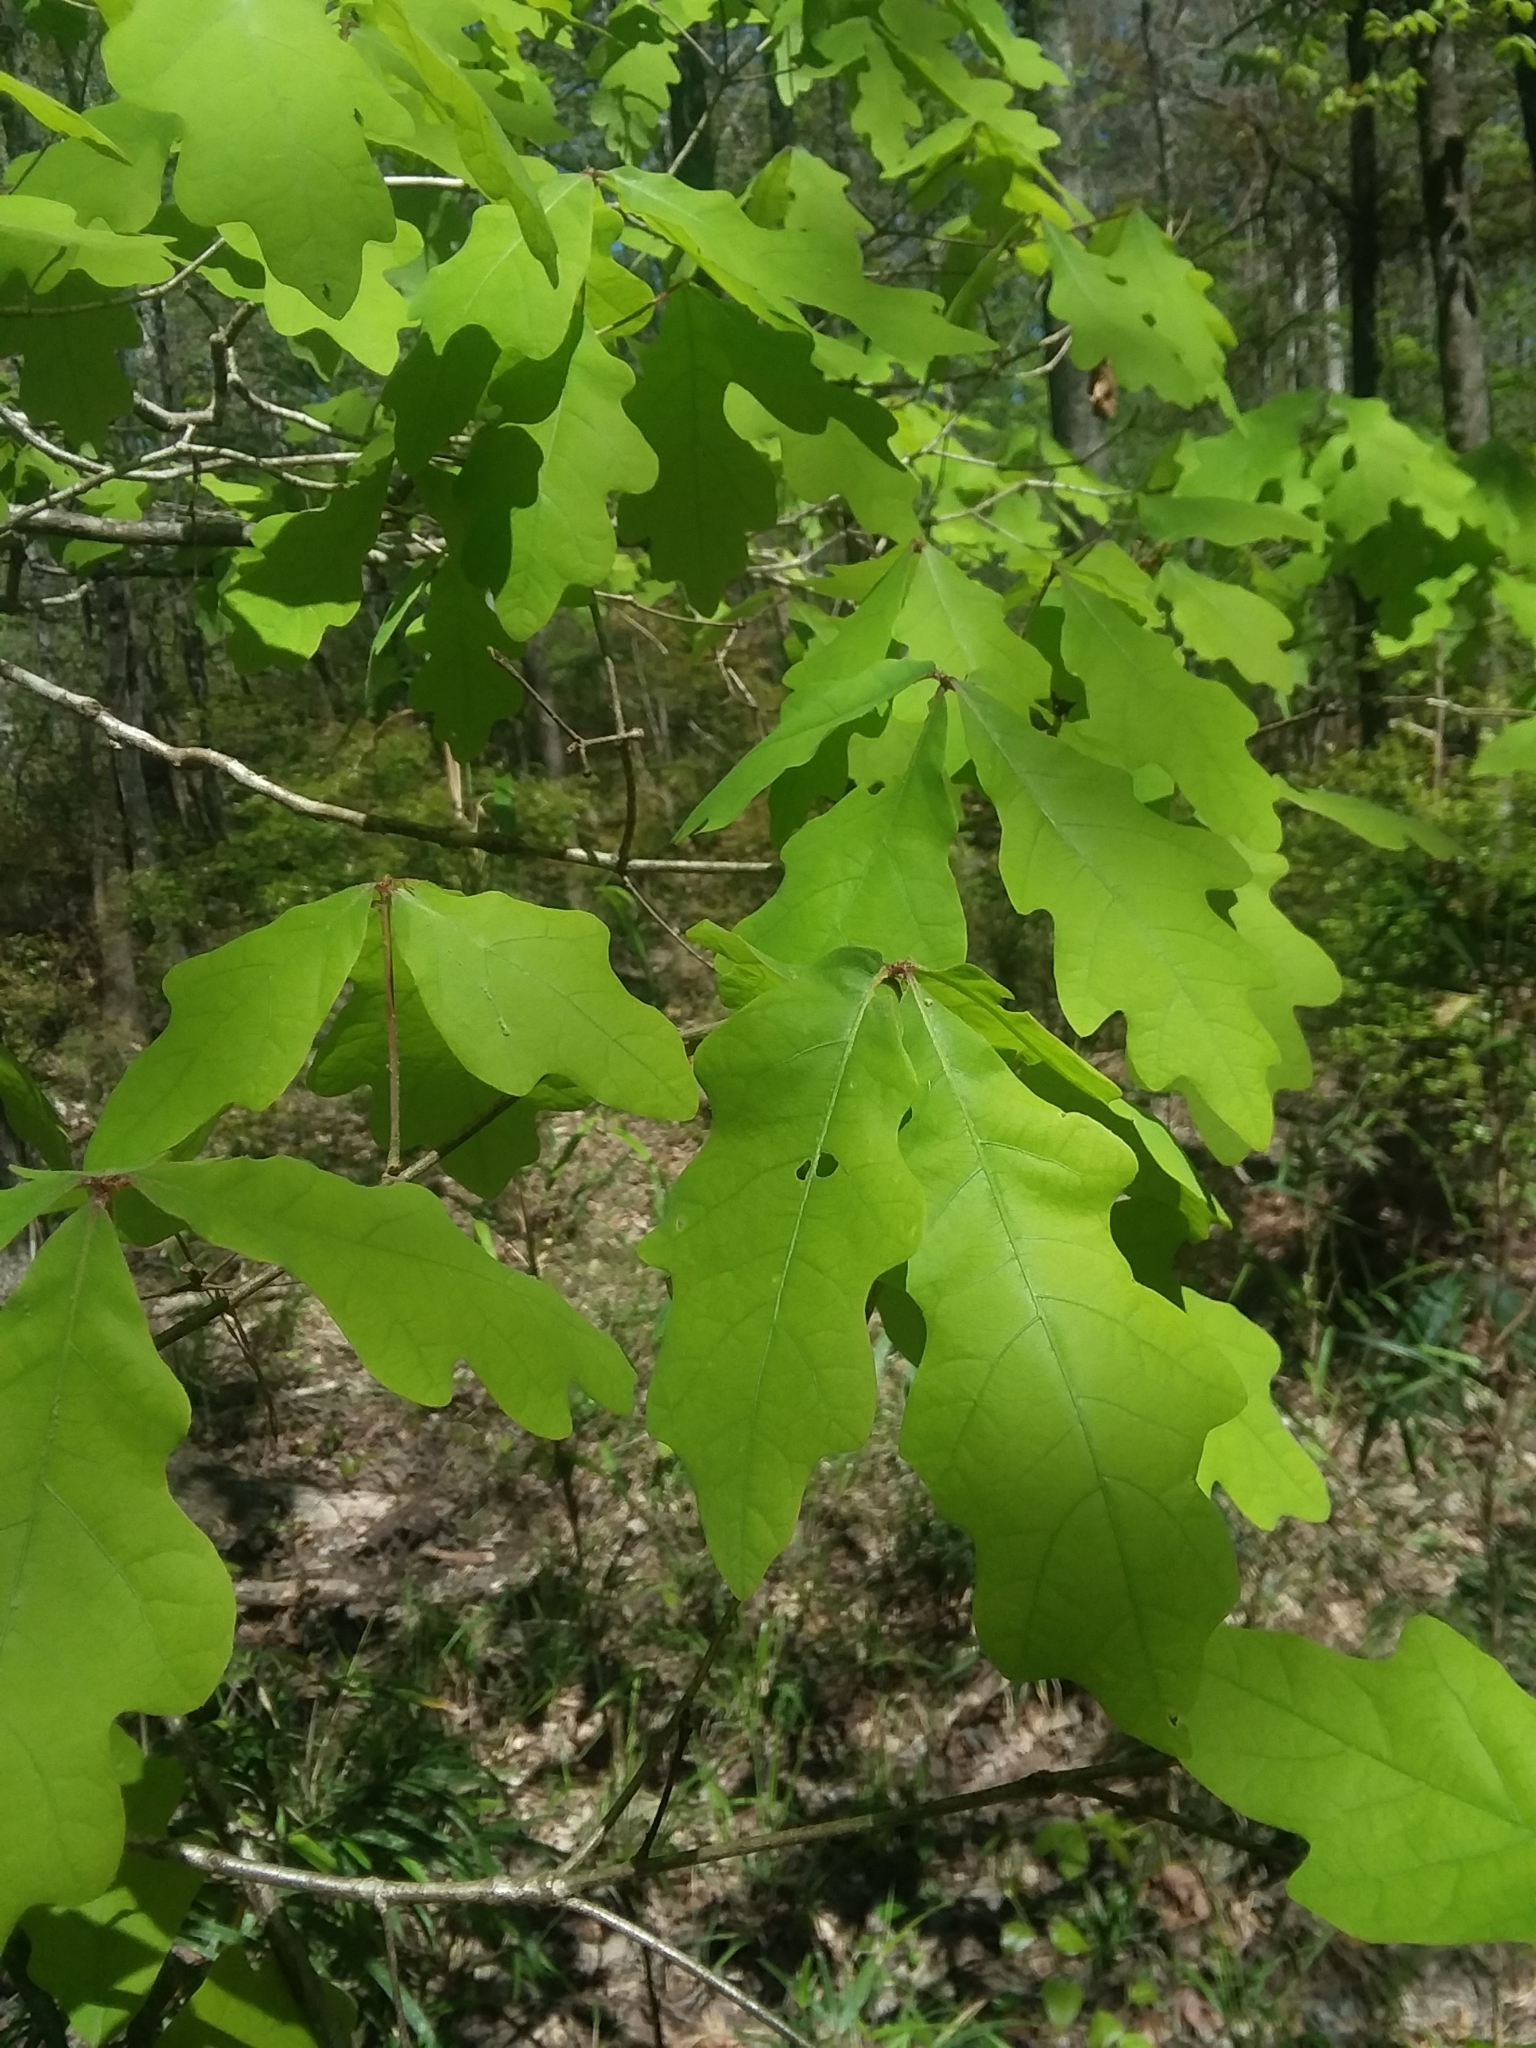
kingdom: Plantae
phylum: Tracheophyta
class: Magnoliopsida
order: Fagales
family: Fagaceae
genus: Quercus
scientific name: Quercus alba
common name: White oak
